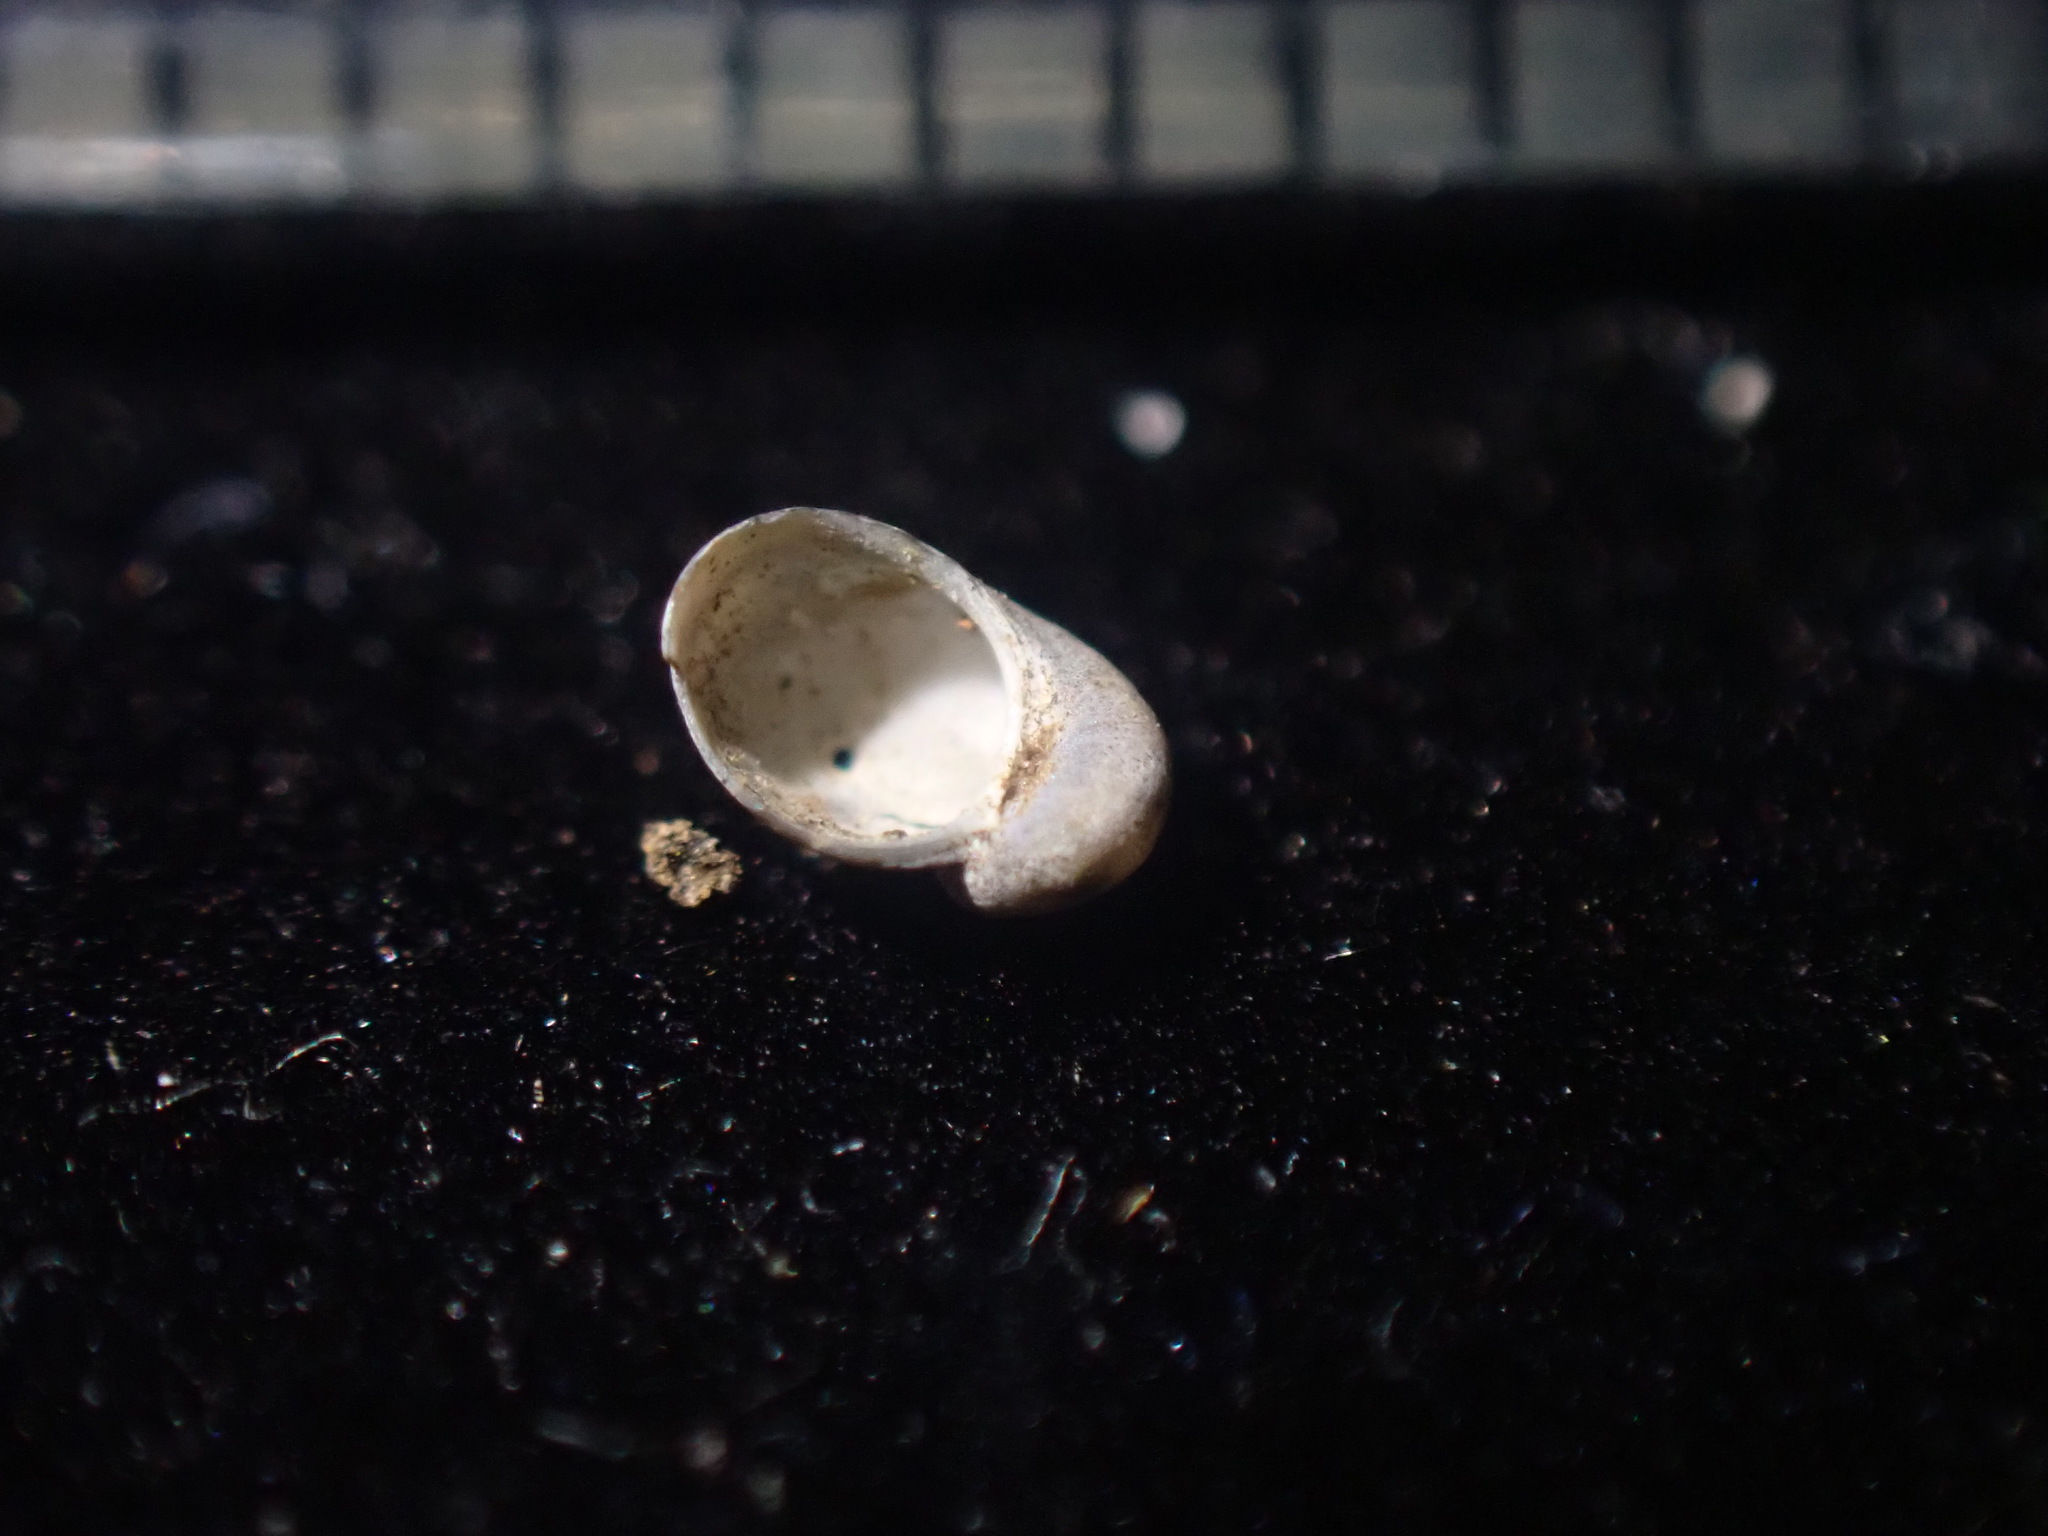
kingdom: Animalia
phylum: Mollusca
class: Gastropoda
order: Trochida
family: Trochidae
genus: Fossarina
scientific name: Fossarina rimata
